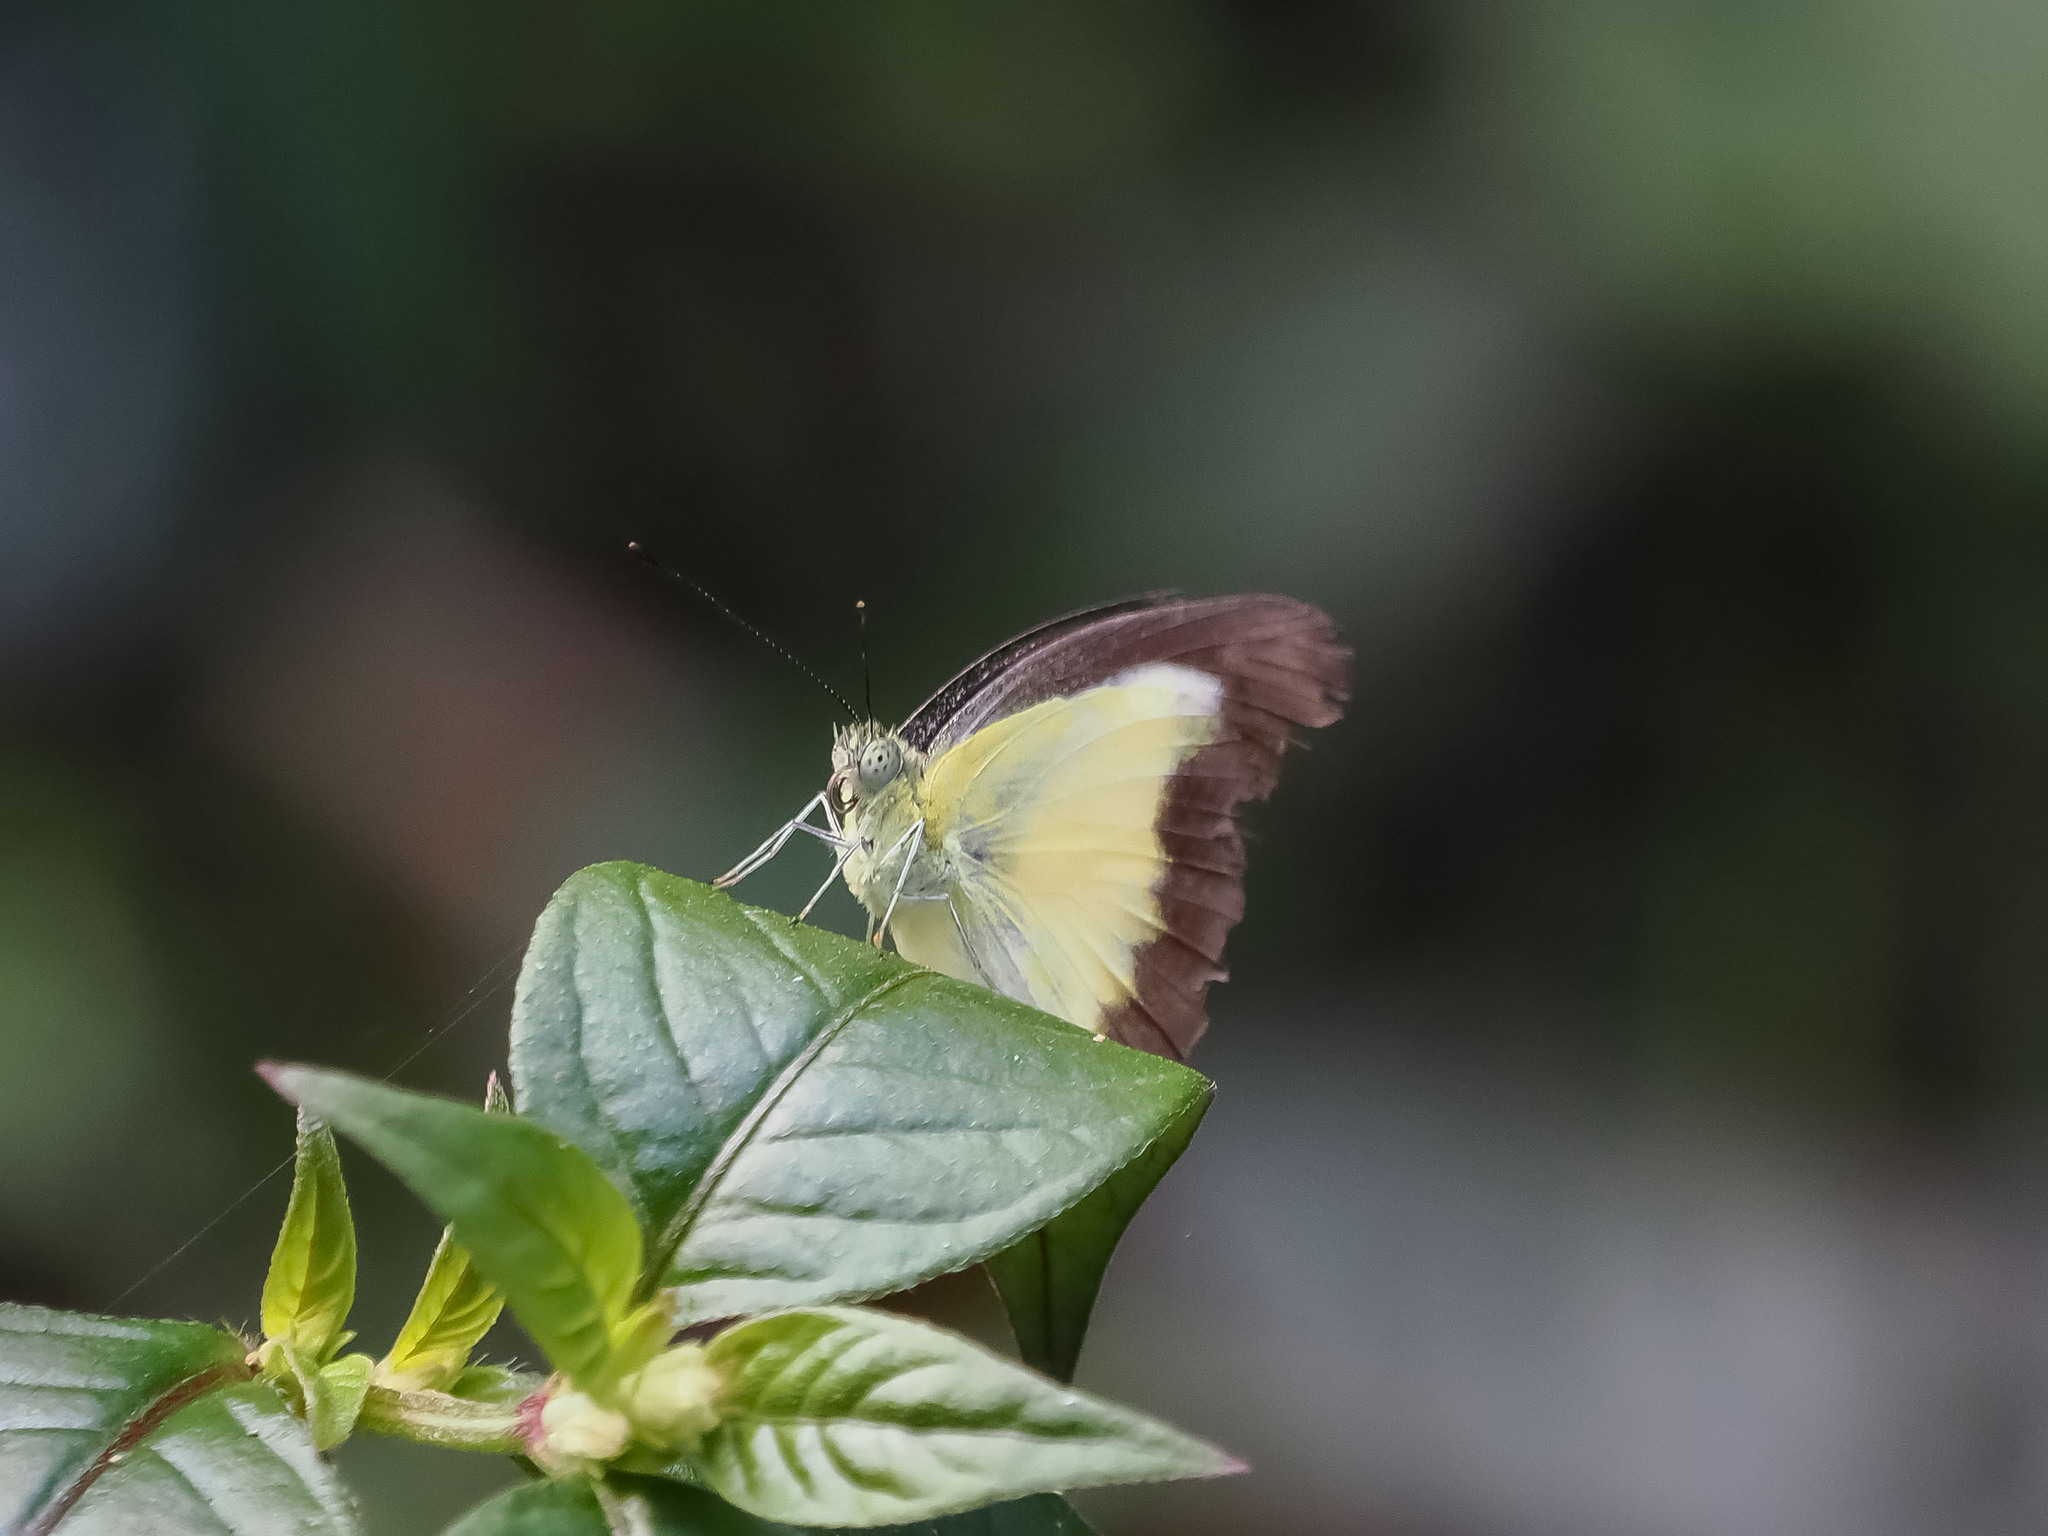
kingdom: Animalia
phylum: Arthropoda
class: Insecta
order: Lepidoptera
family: Pieridae
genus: Appias
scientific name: Appias nephele
